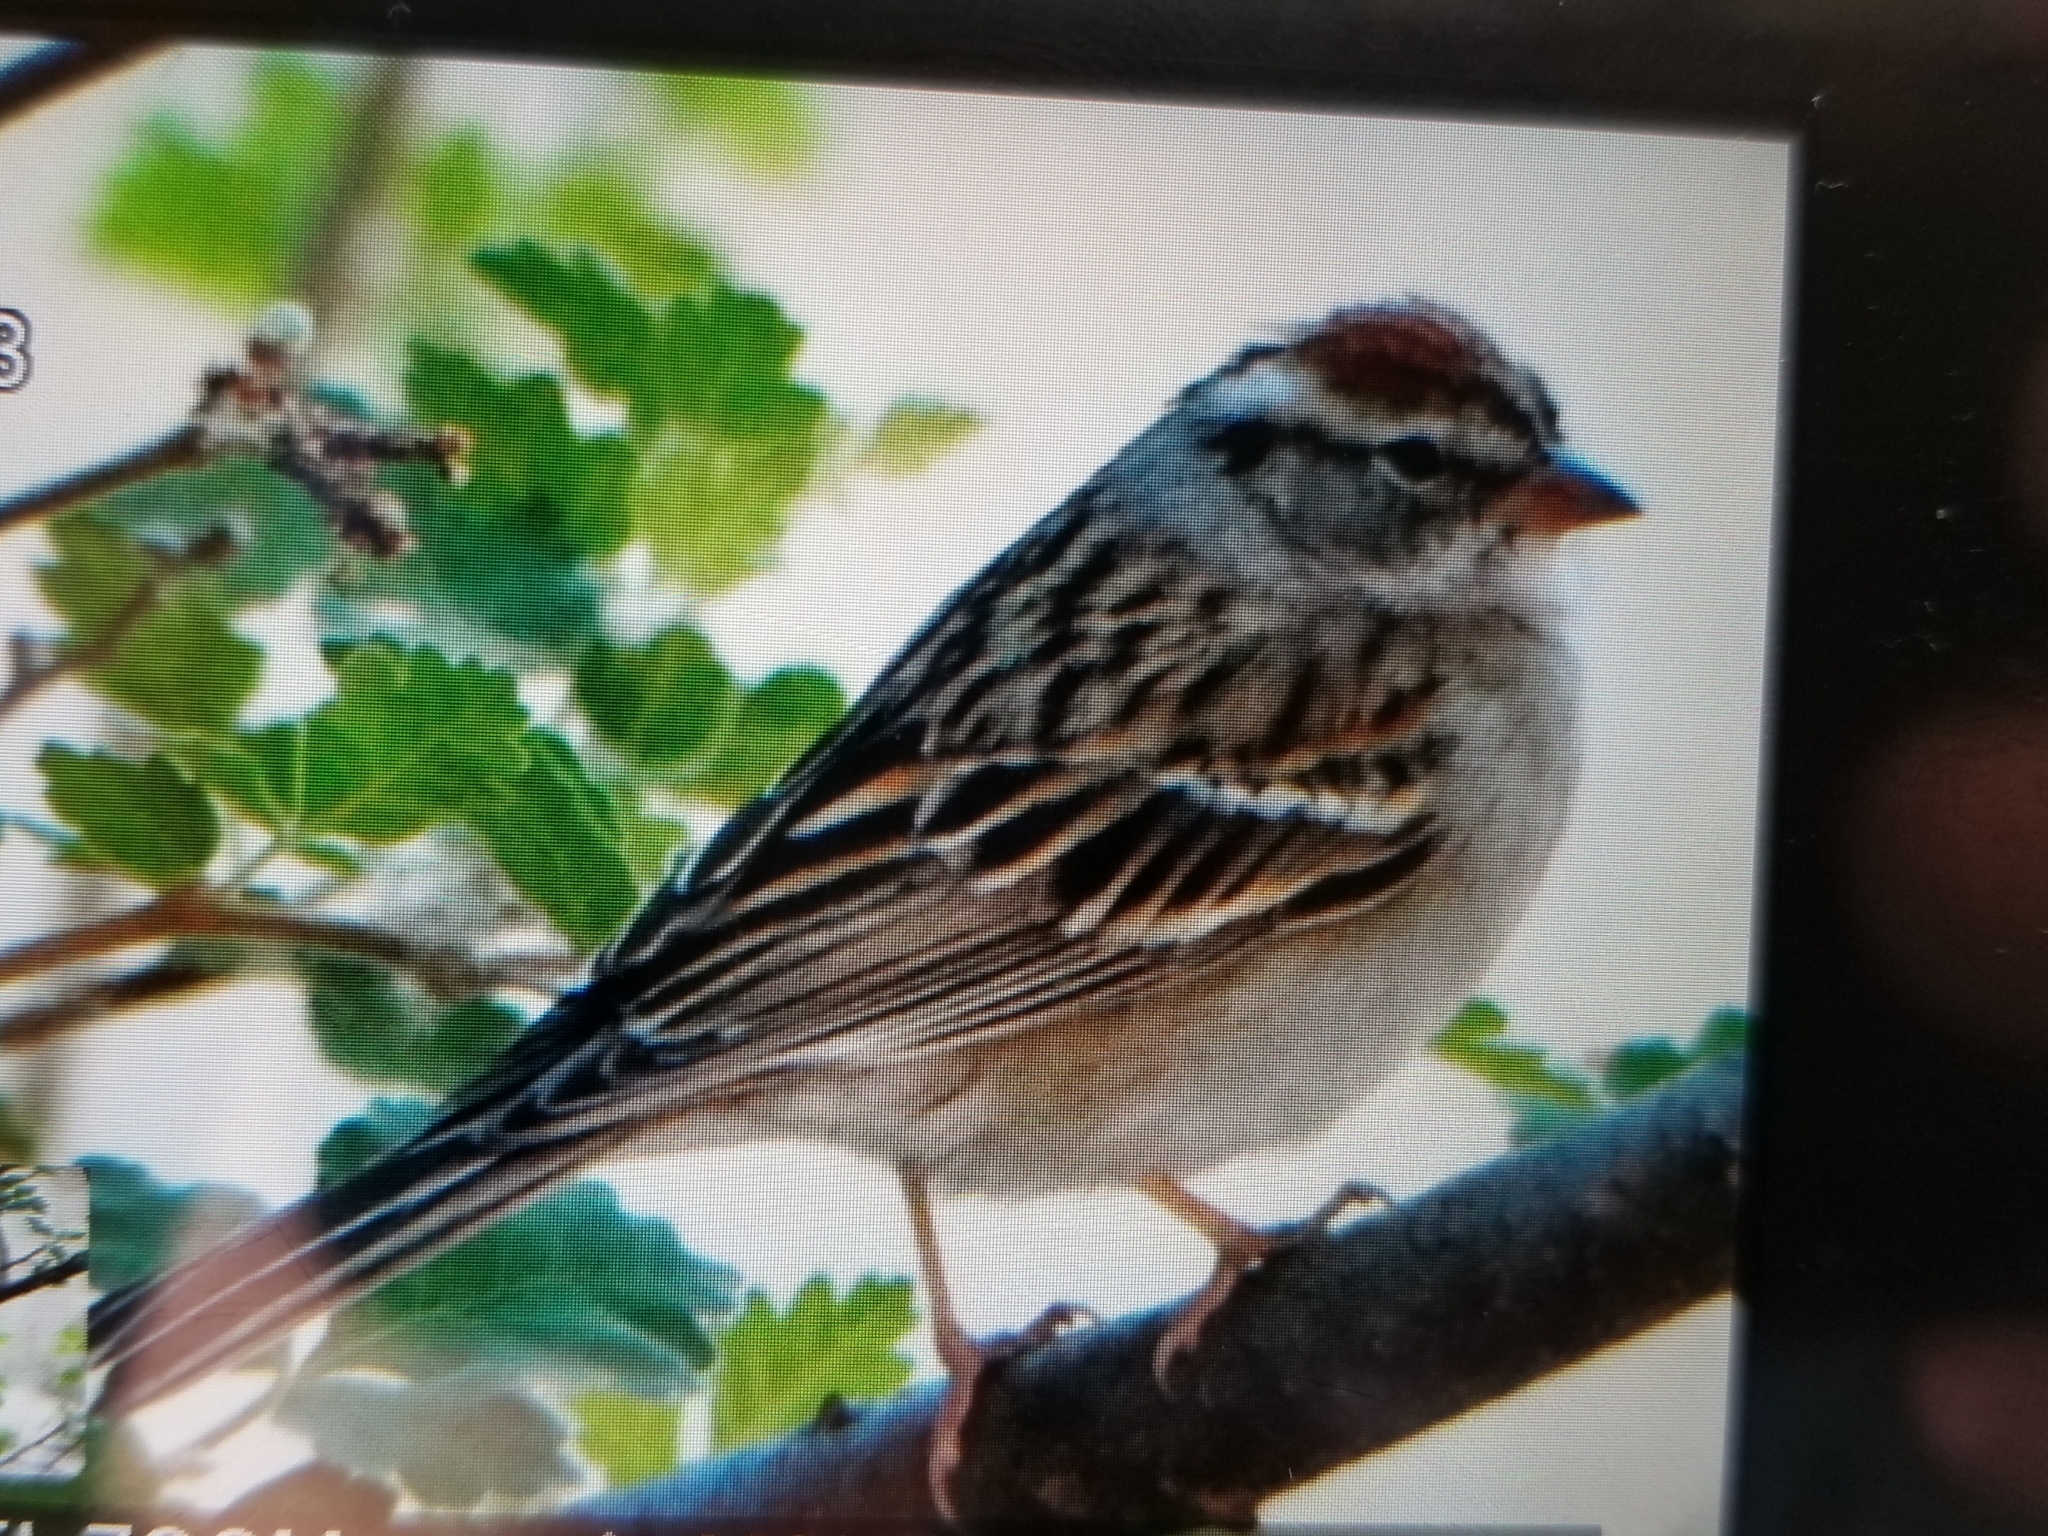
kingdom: Animalia
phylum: Chordata
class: Aves
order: Passeriformes
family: Passerellidae
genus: Spizella
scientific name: Spizella passerina
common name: Chipping sparrow
